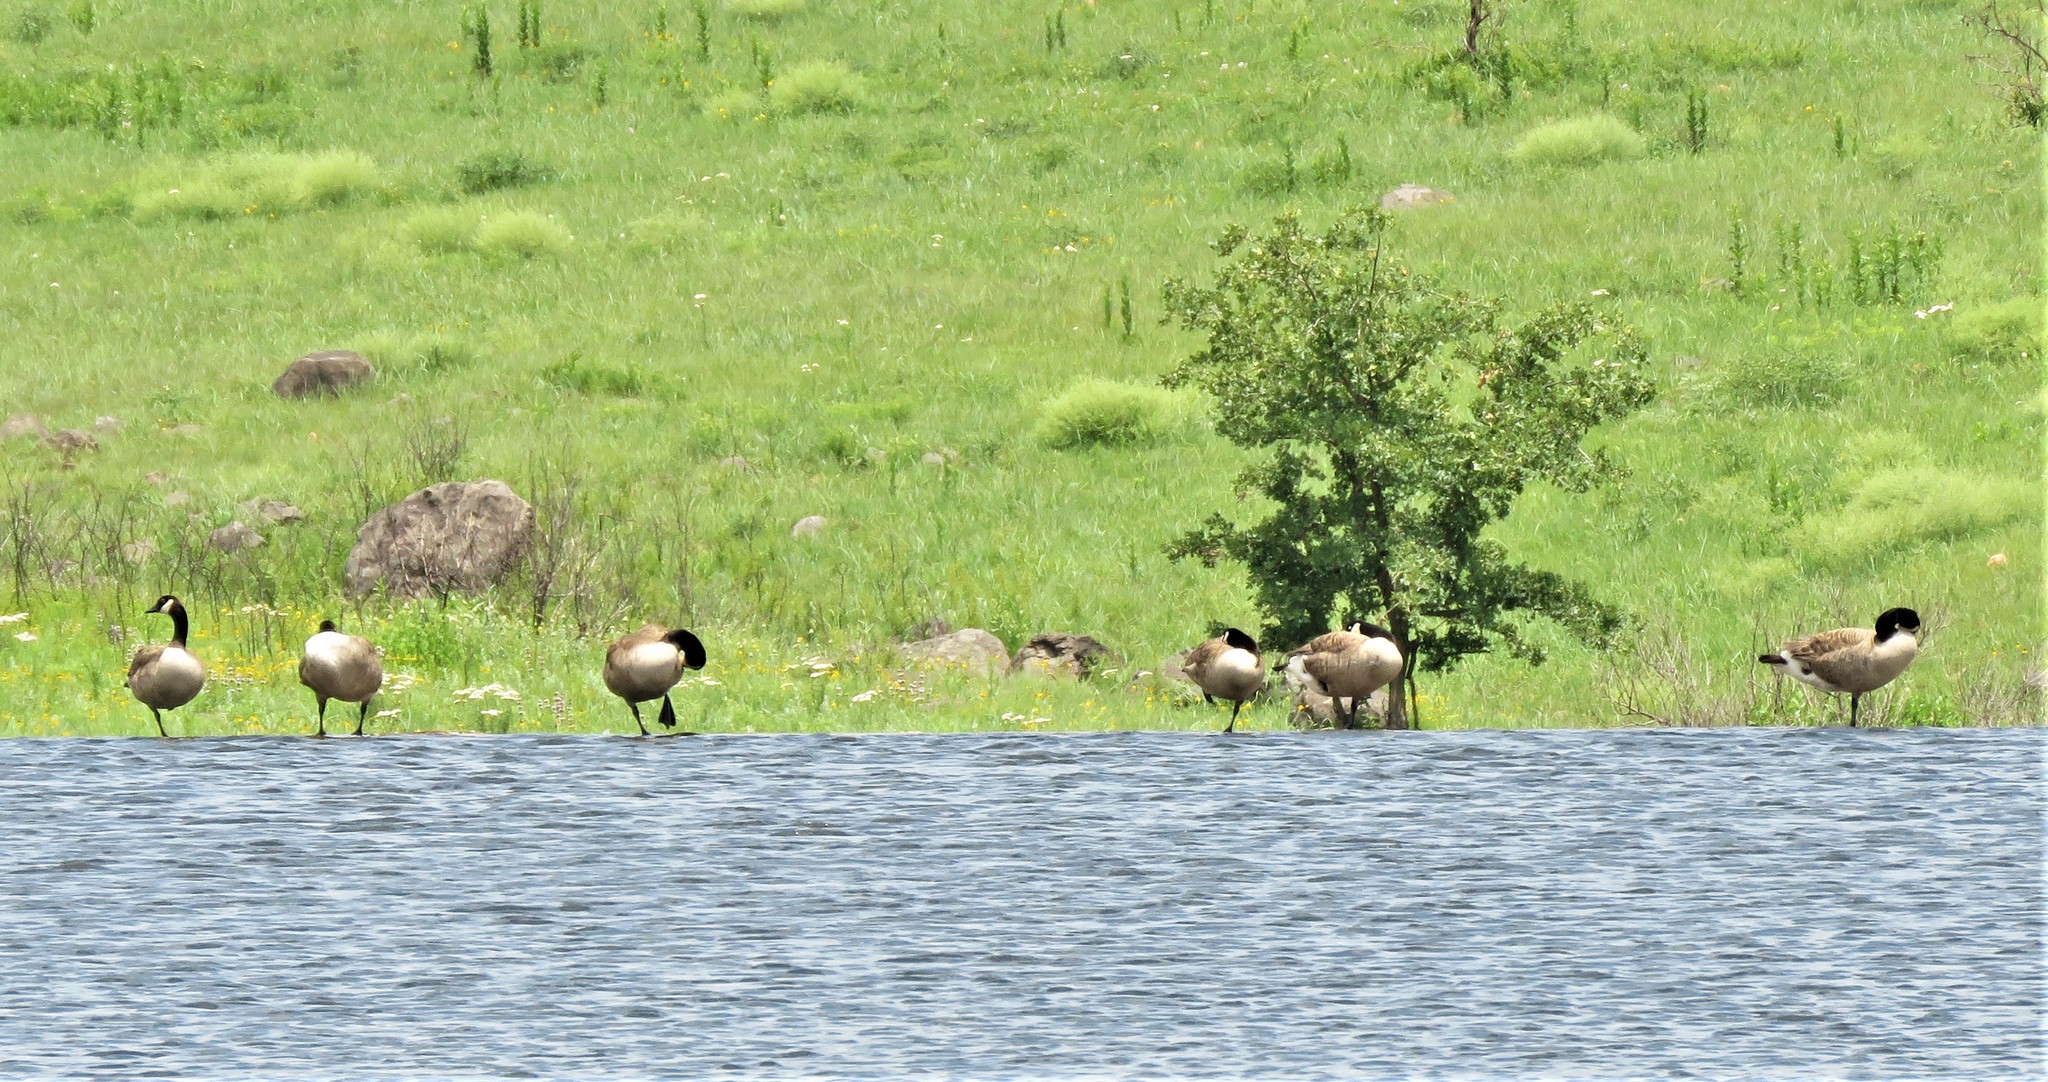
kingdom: Animalia
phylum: Chordata
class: Aves
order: Anseriformes
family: Anatidae
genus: Branta
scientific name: Branta canadensis
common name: Canada goose
